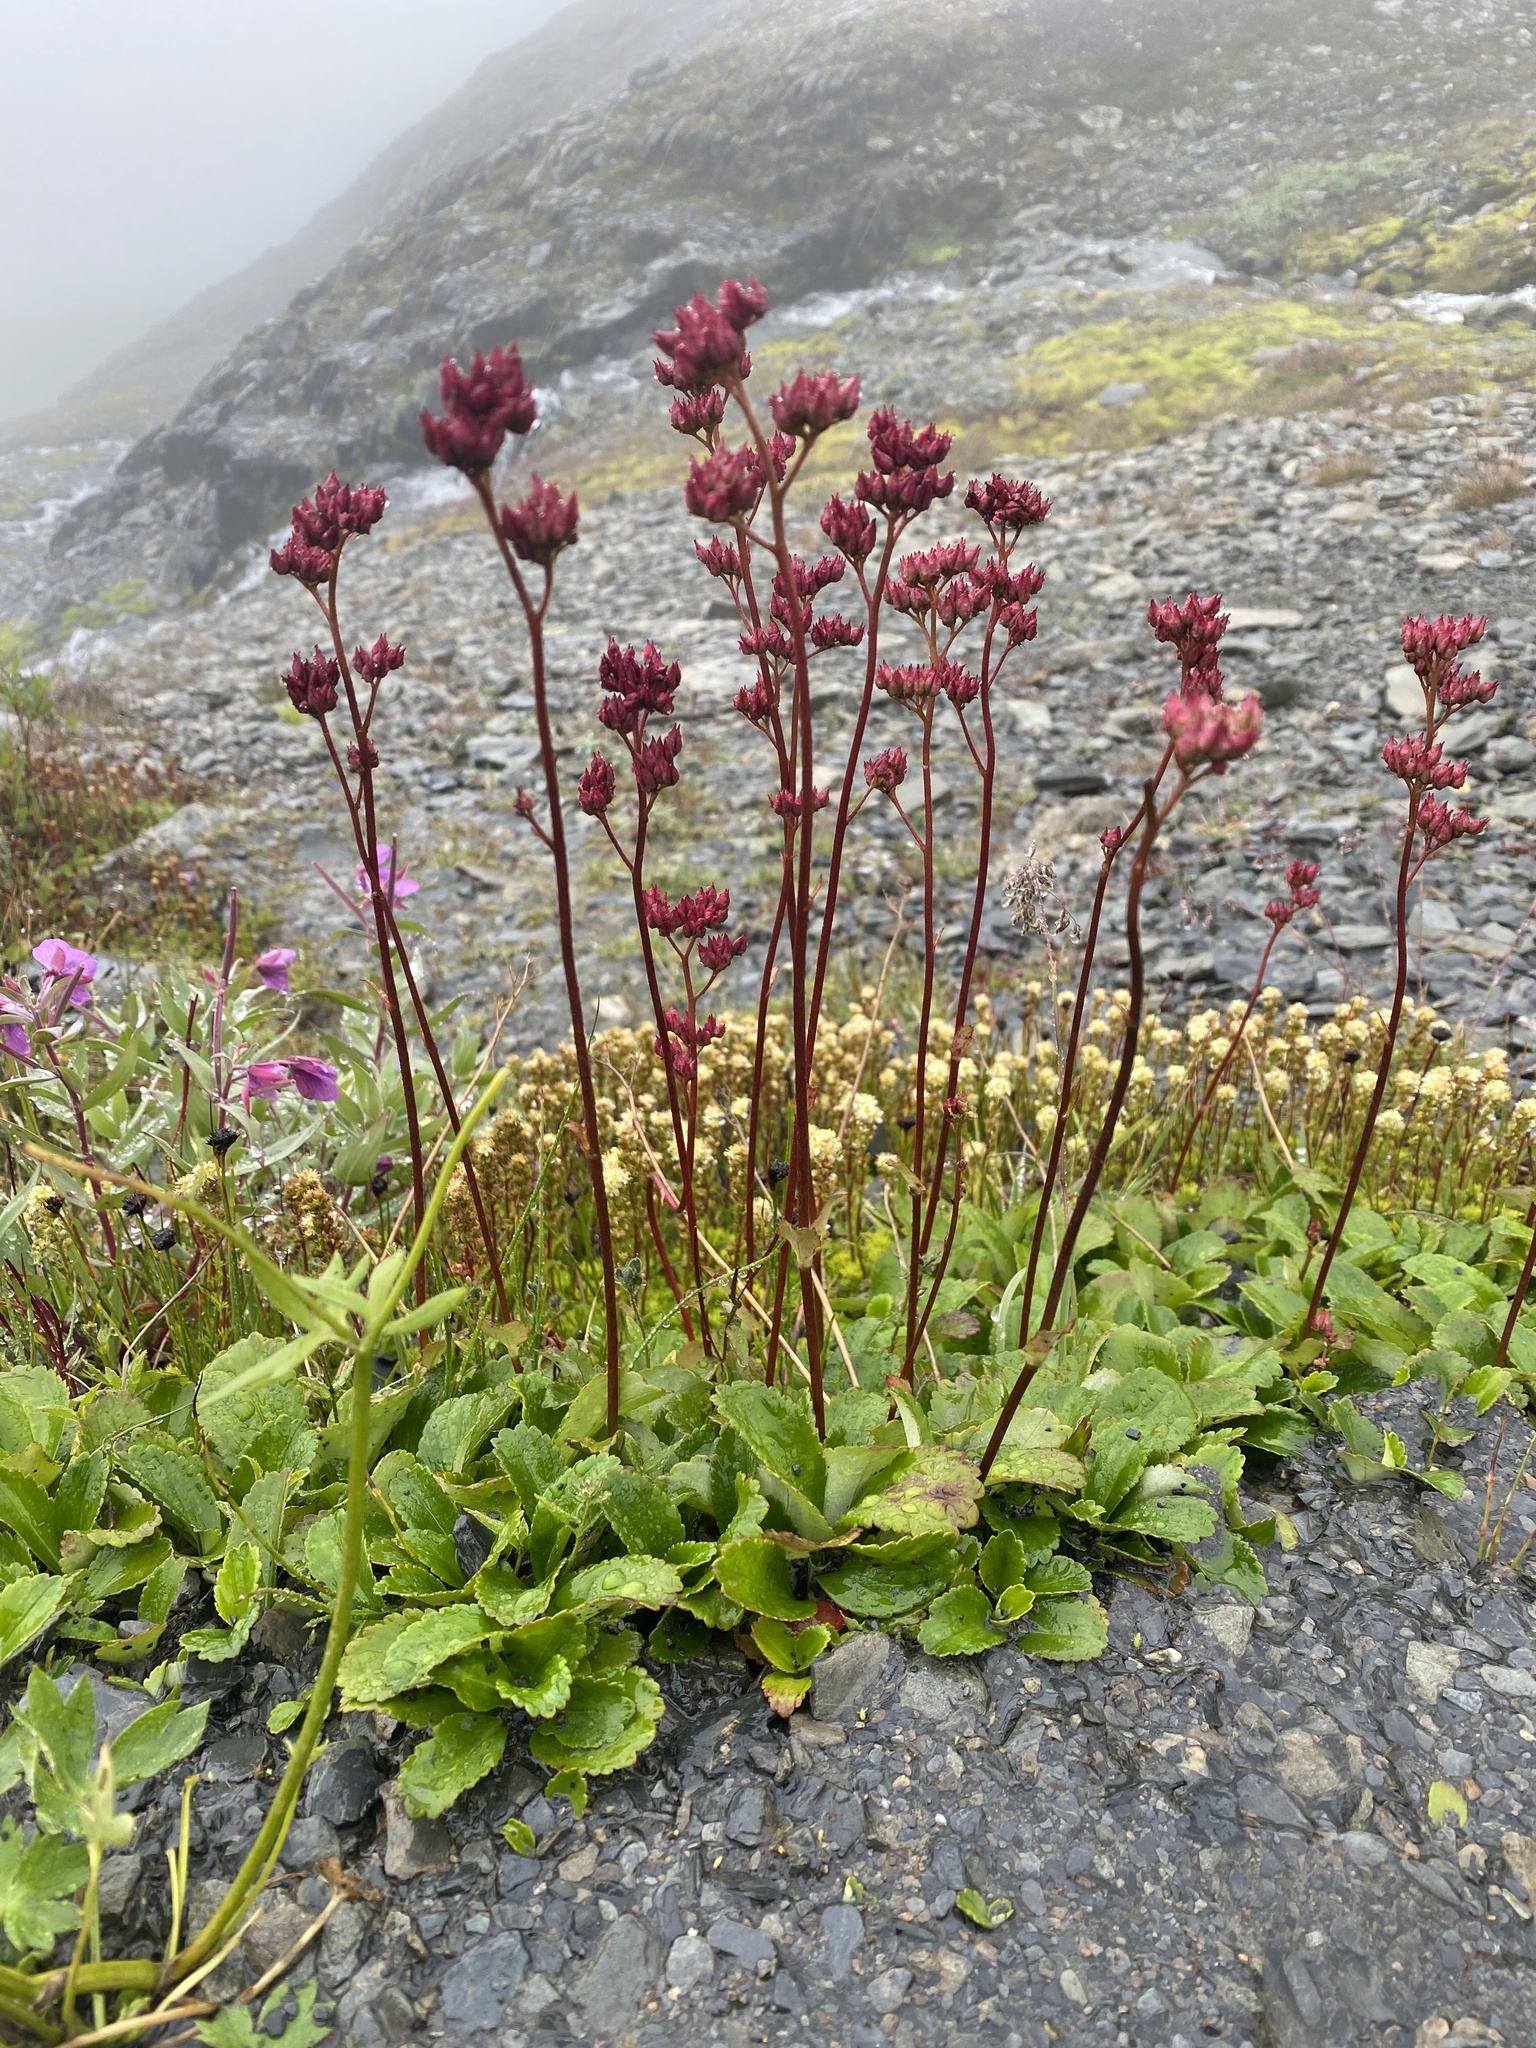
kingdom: Plantae
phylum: Tracheophyta
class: Magnoliopsida
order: Saxifragales
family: Saxifragaceae
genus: Leptarrhena
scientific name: Leptarrhena pyrolifolia
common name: Leatherleaf-saxifrage
